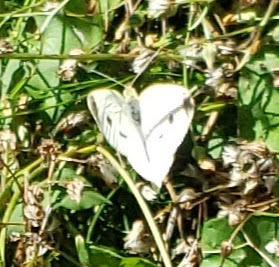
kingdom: Animalia
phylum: Arthropoda
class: Insecta
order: Lepidoptera
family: Pieridae
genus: Pieris
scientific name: Pieris rapae
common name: Small white
